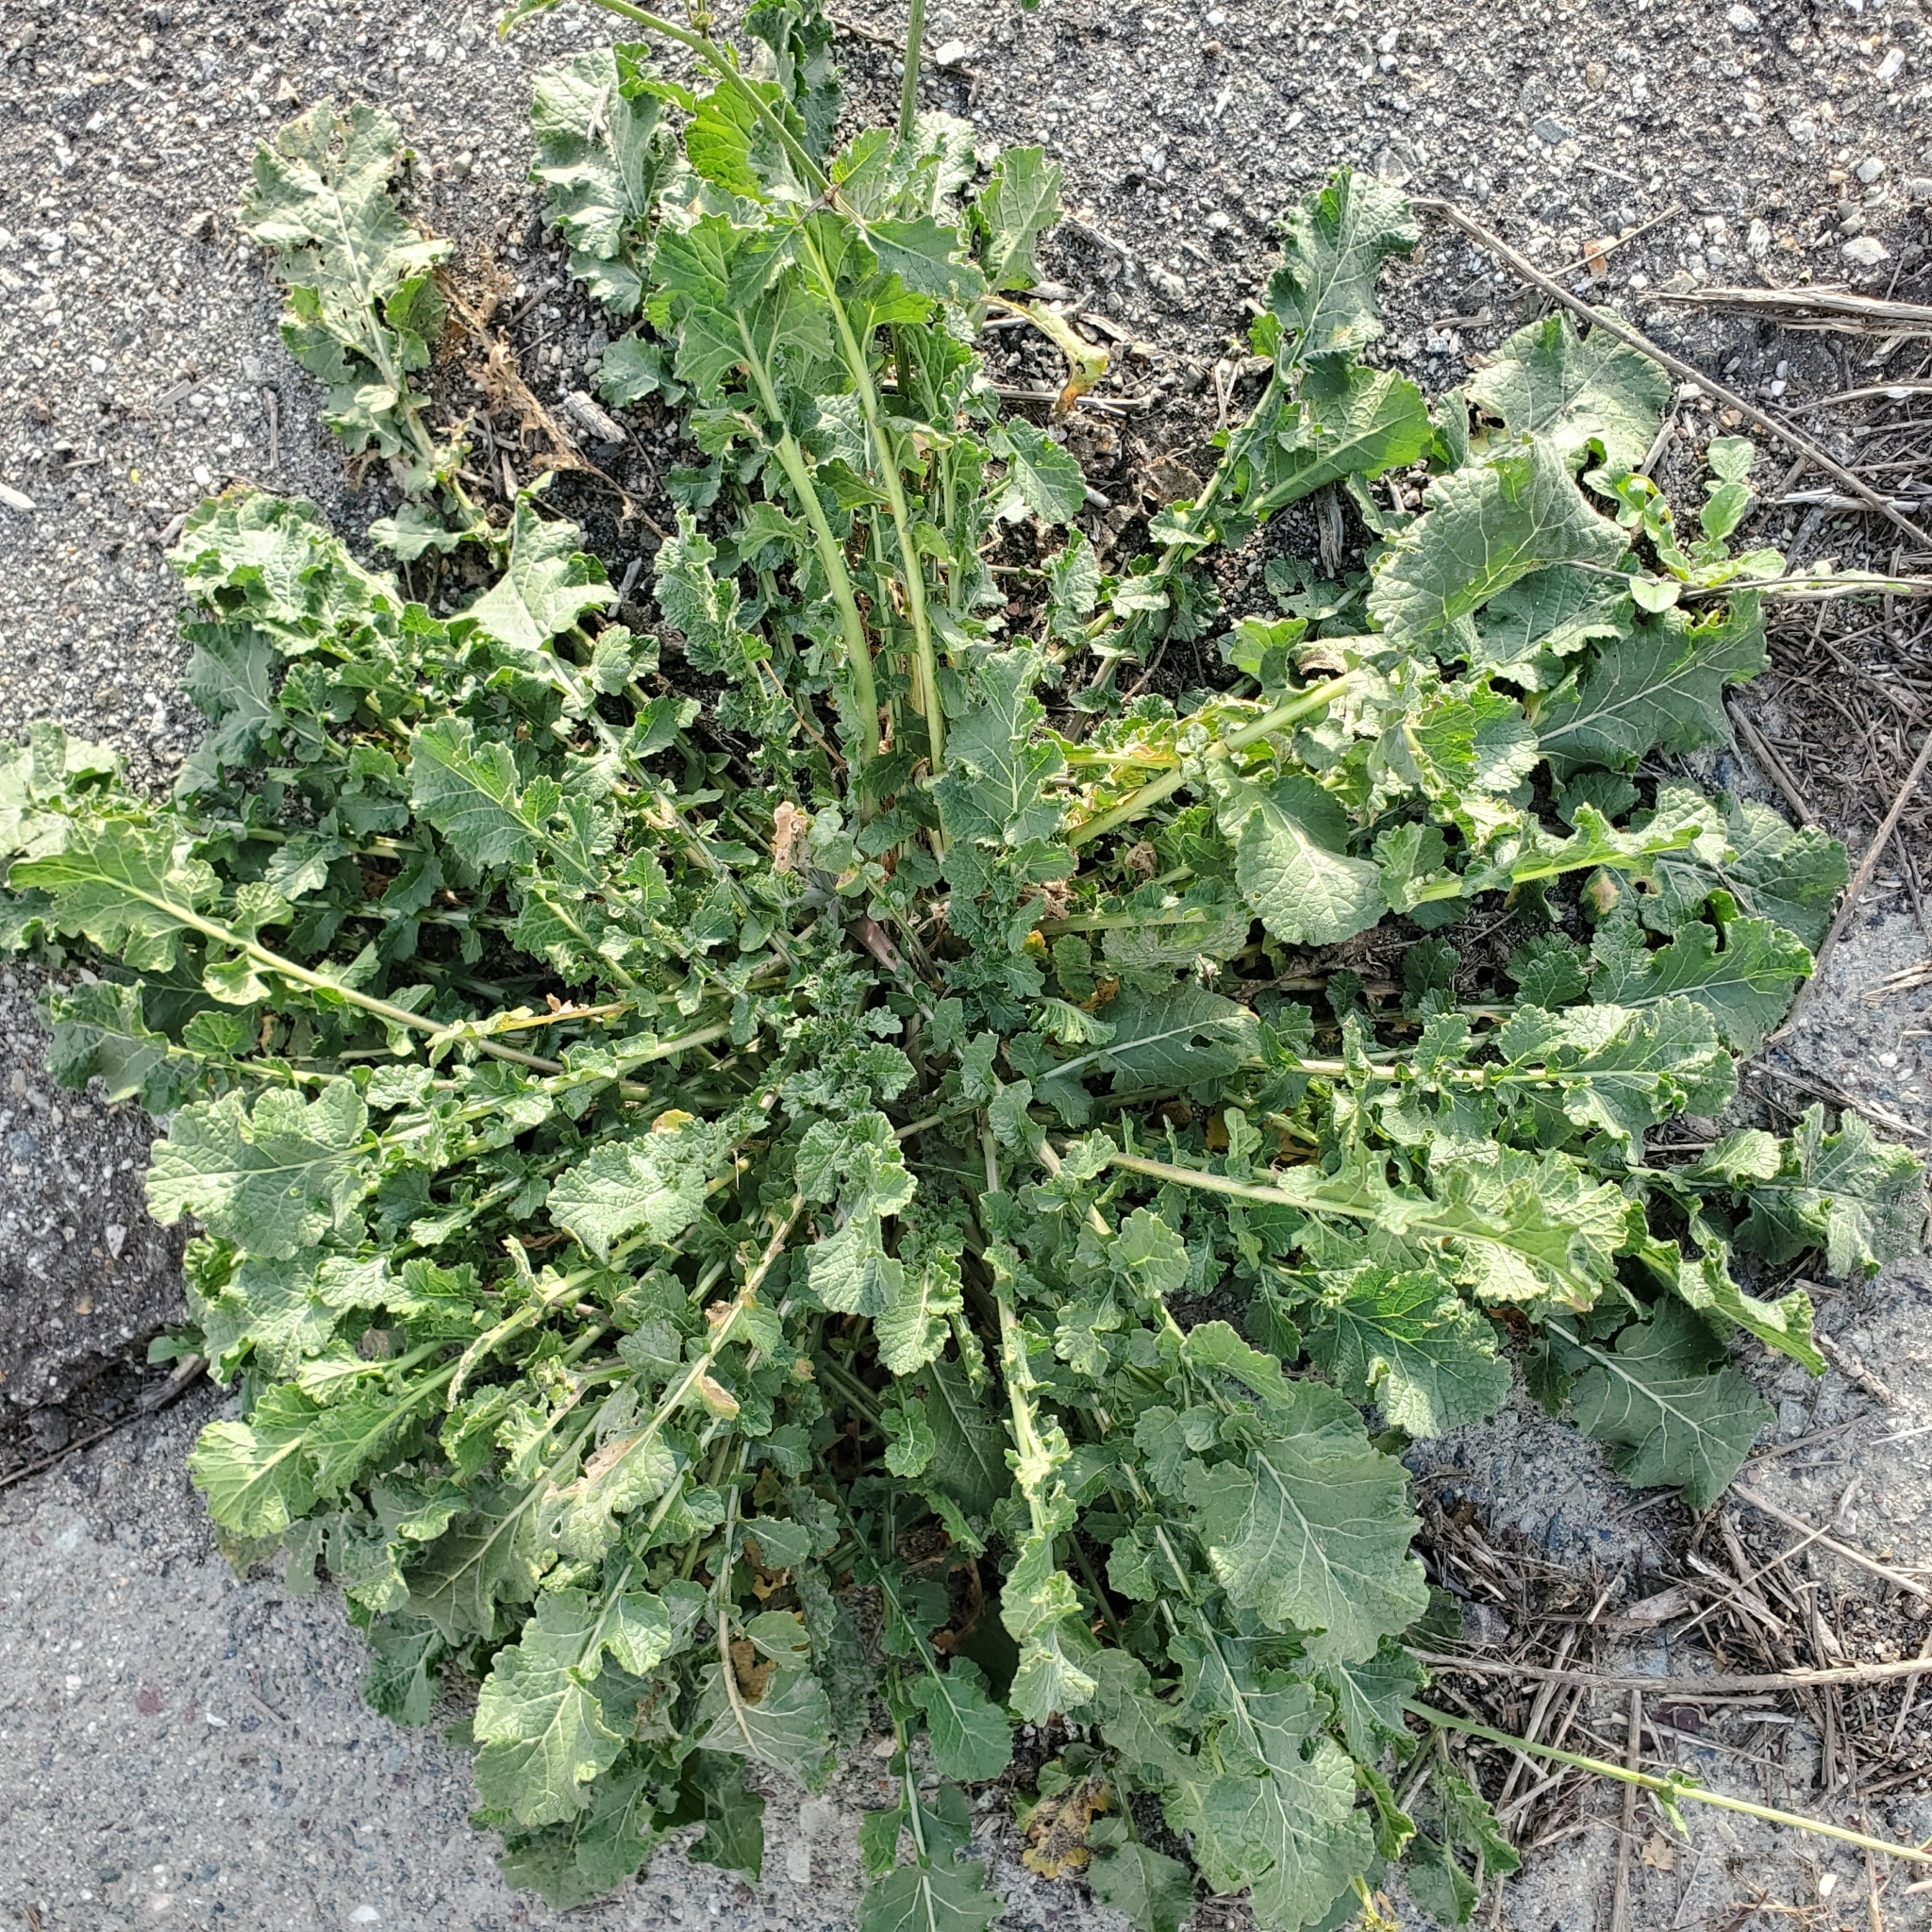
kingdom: Plantae
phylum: Tracheophyta
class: Magnoliopsida
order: Brassicales
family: Brassicaceae
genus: Hirschfeldia
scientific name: Hirschfeldia incana
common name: Hoary mustard
